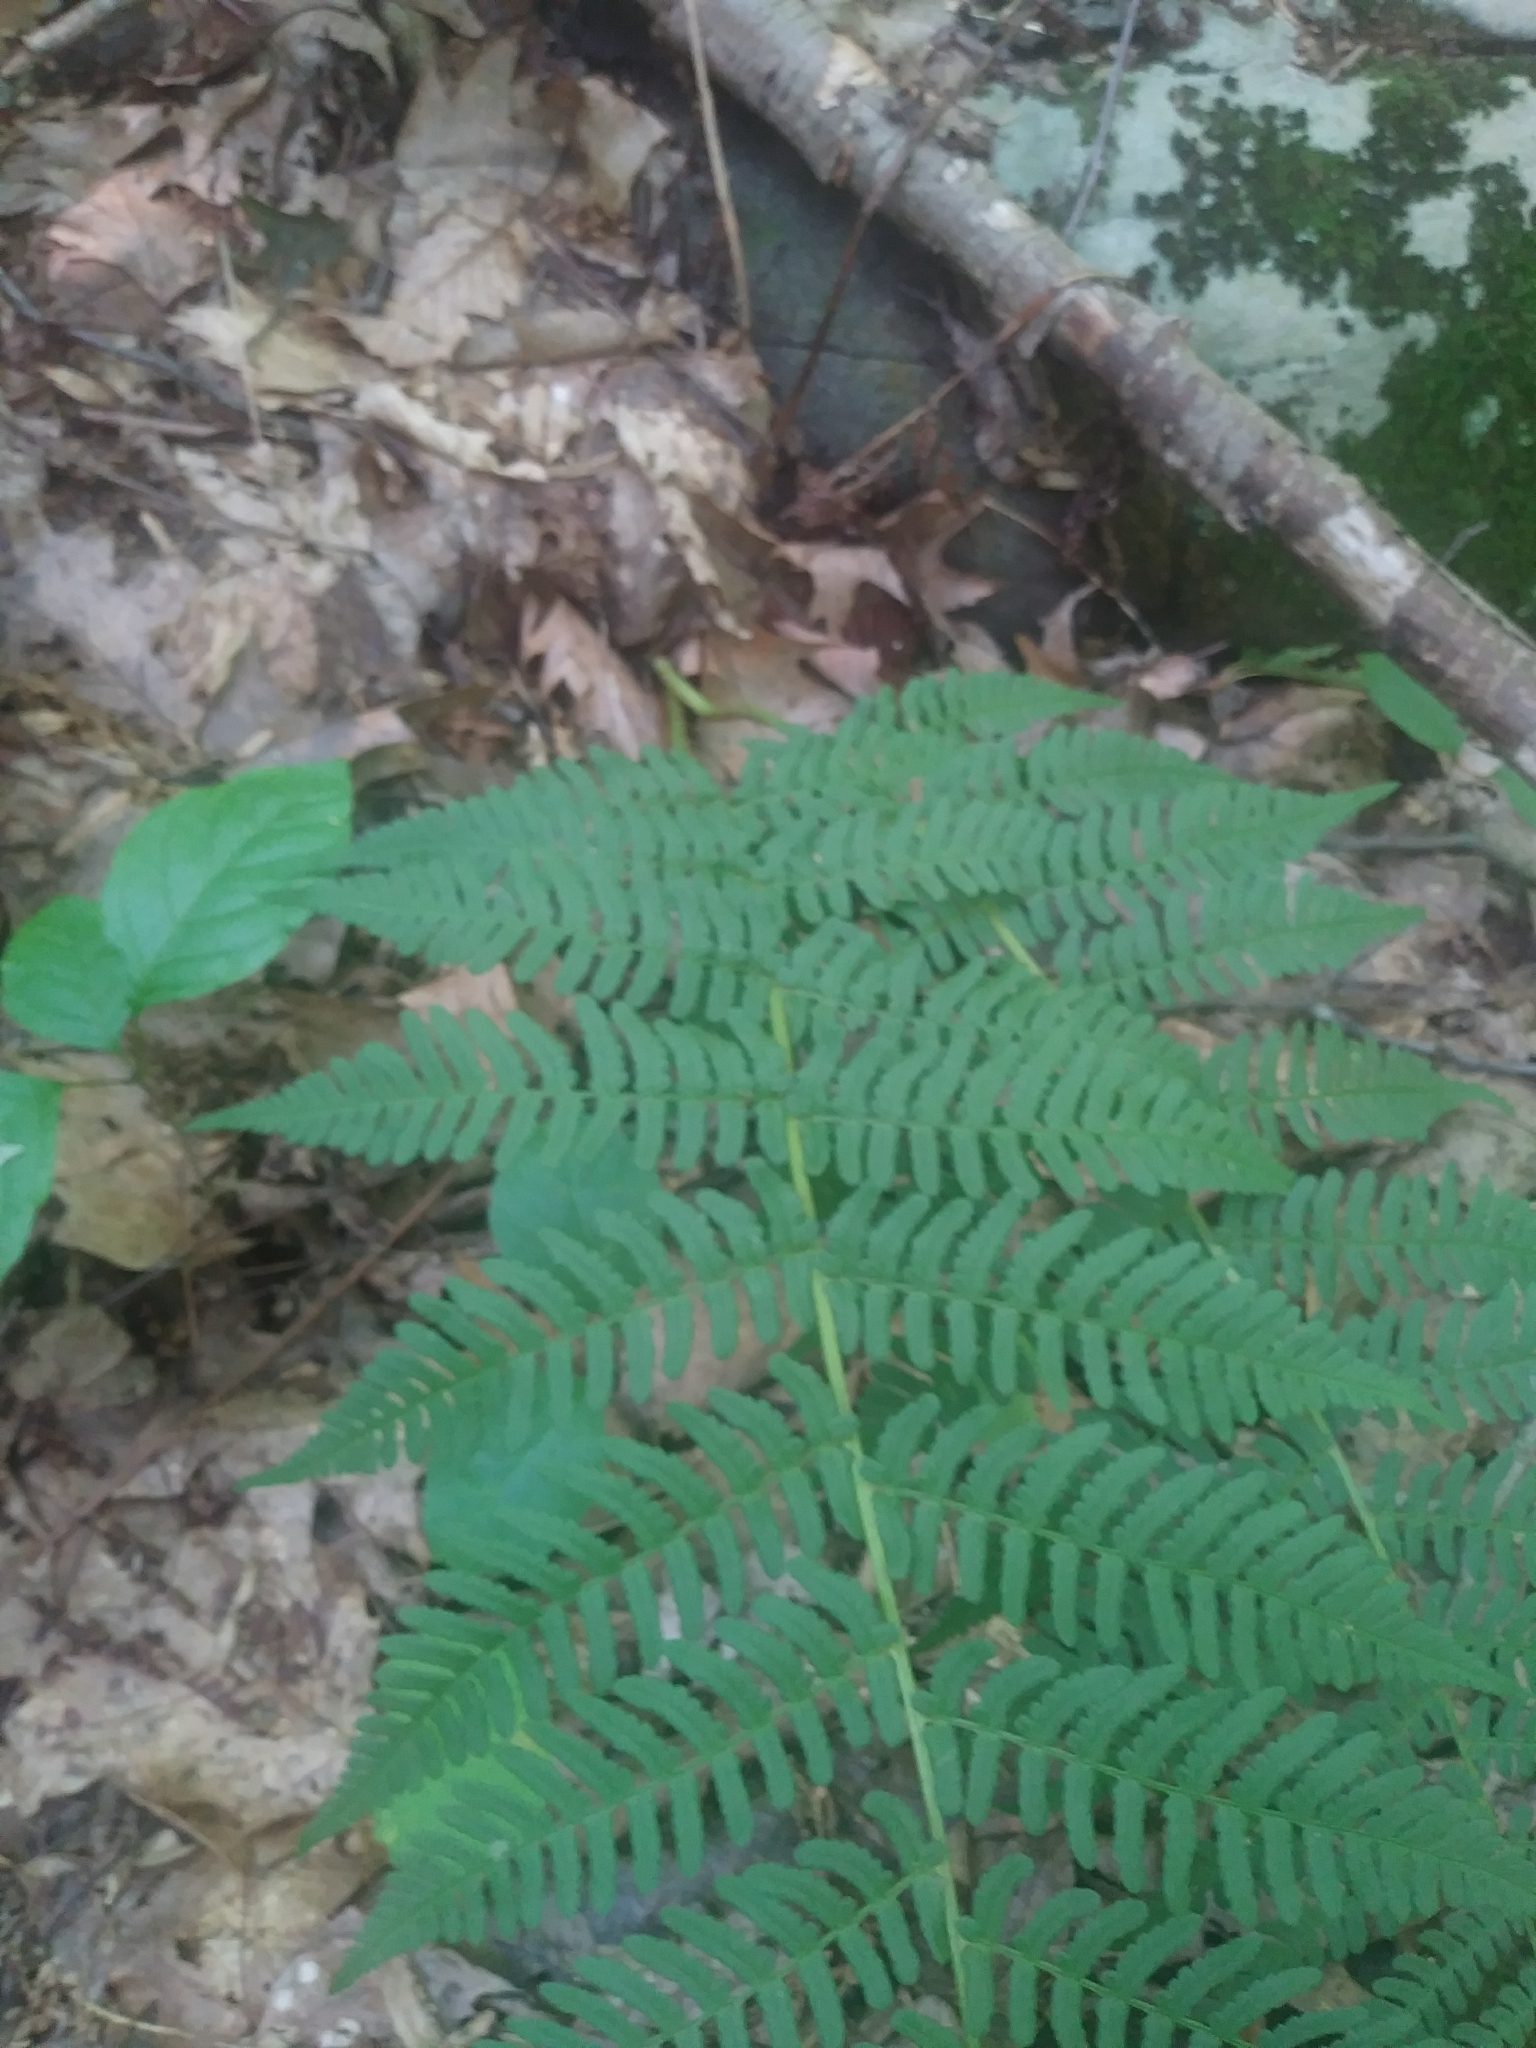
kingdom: Plantae
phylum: Tracheophyta
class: Polypodiopsida
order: Polypodiales
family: Dryopteridaceae
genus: Dryopteris
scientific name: Dryopteris marginalis
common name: Marginal wood fern
